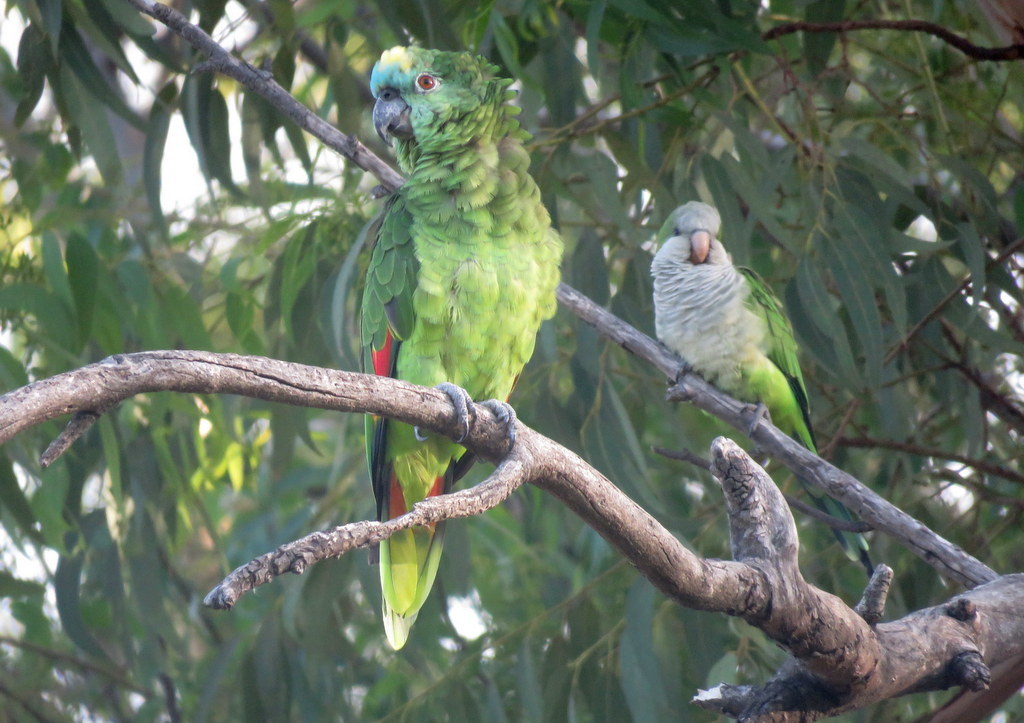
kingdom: Animalia
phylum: Chordata
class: Aves
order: Psittaciformes
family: Psittacidae
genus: Amazona
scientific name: Amazona aestiva
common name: Turquoise-fronted amazon
